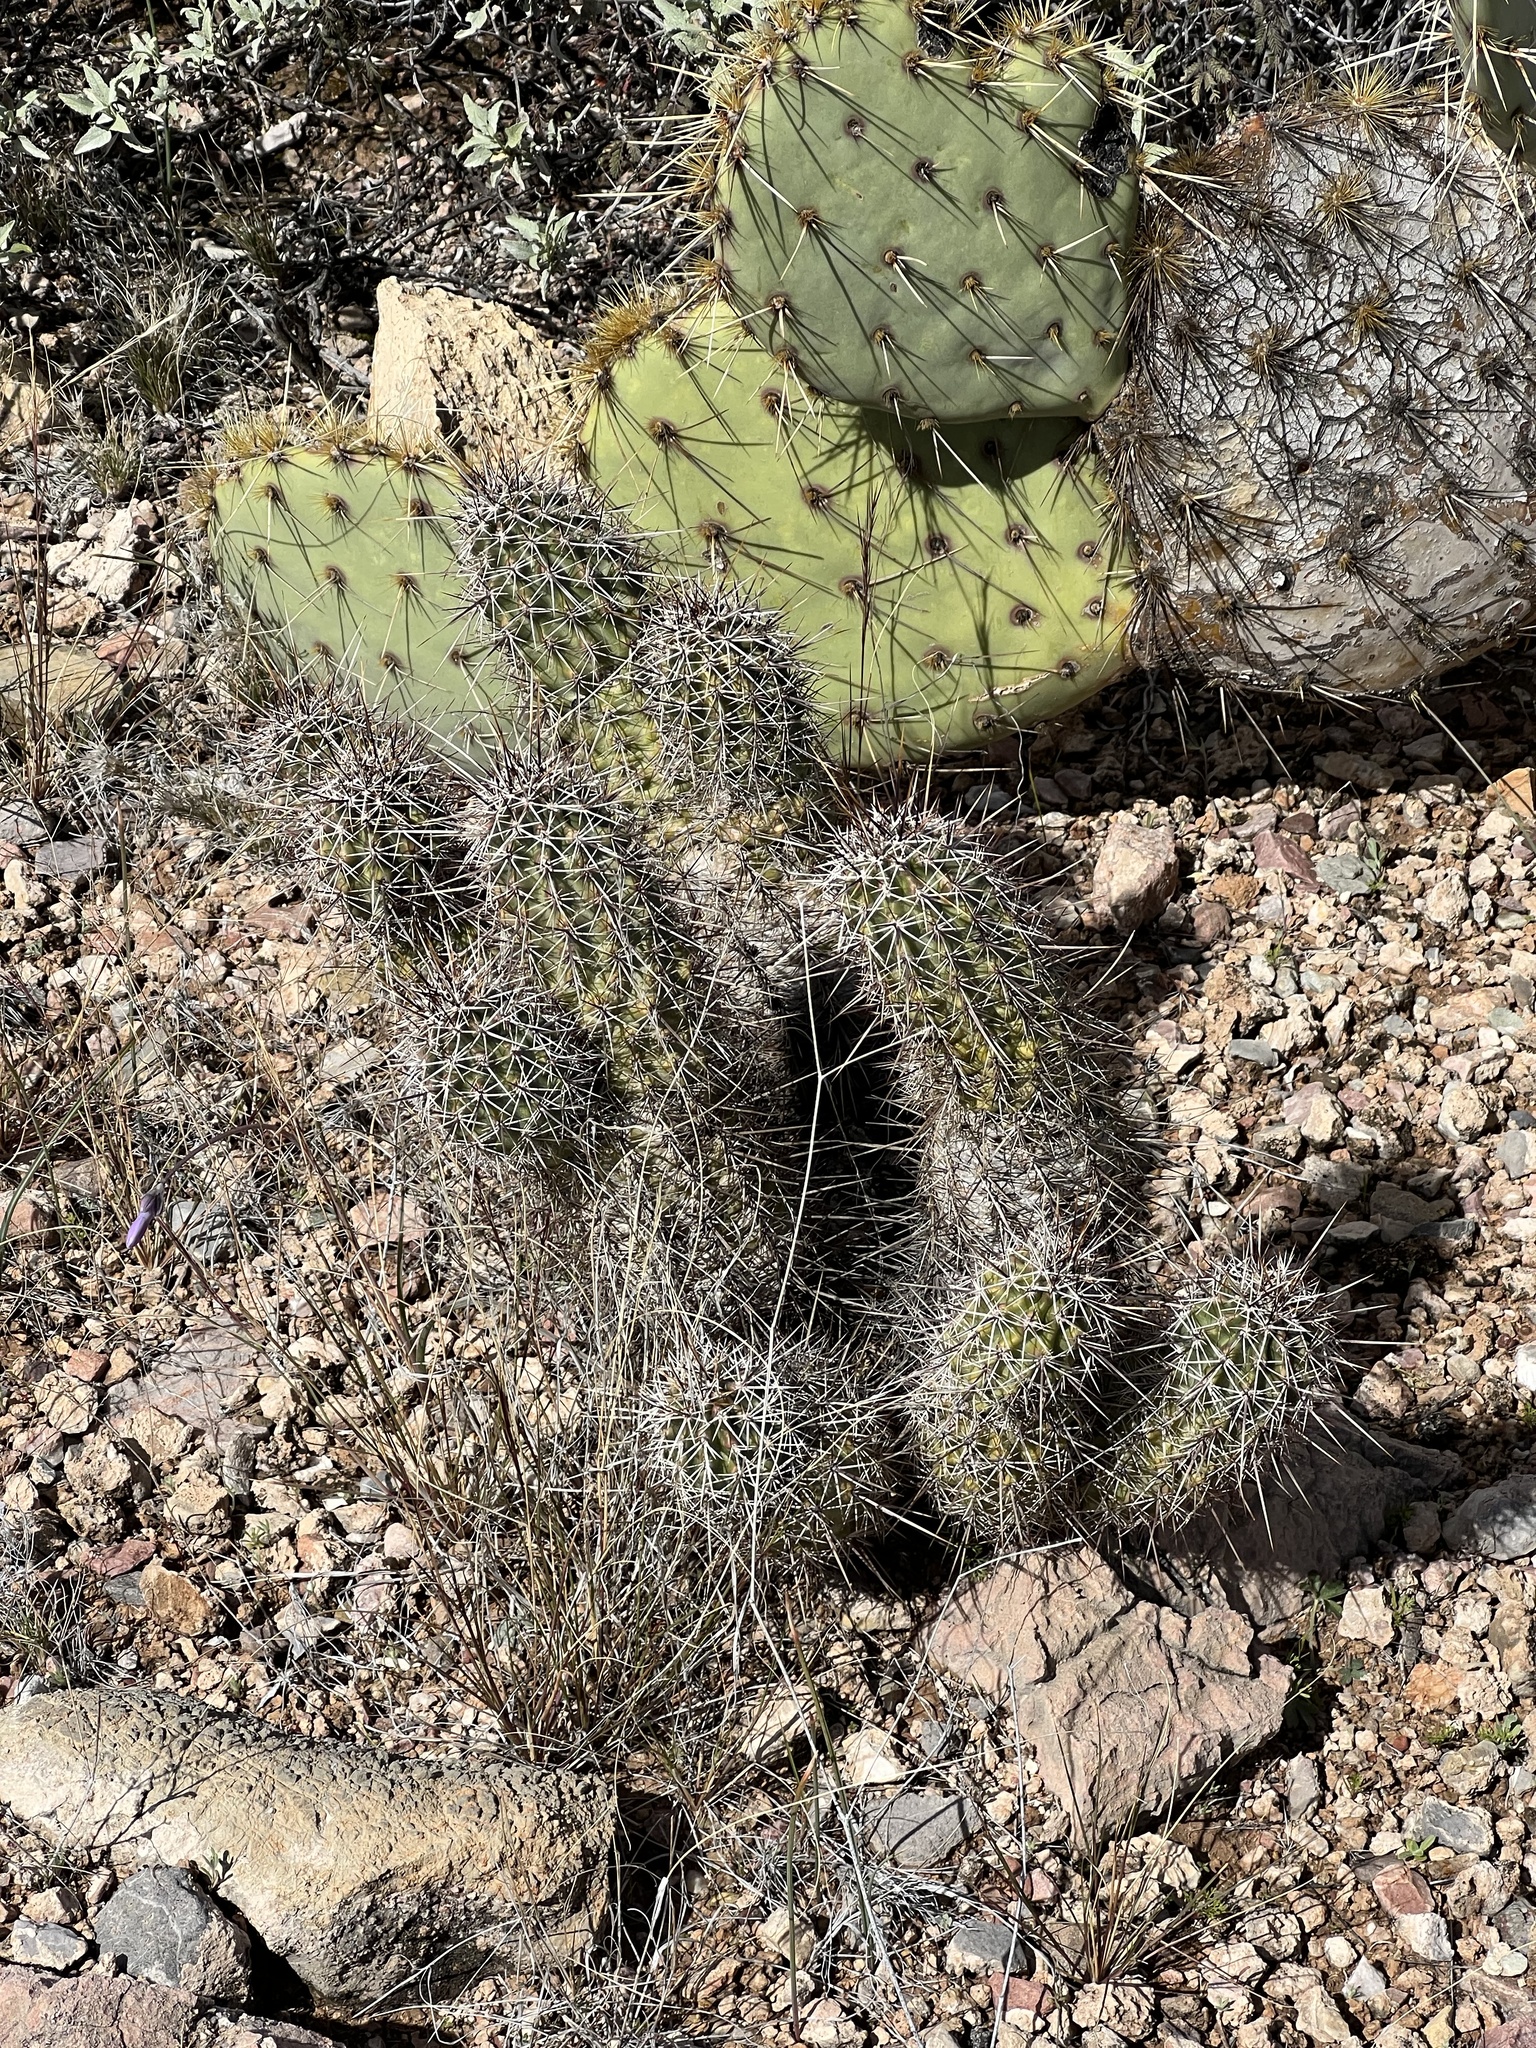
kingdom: Plantae
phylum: Tracheophyta
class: Magnoliopsida
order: Caryophyllales
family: Cactaceae
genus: Echinocereus
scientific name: Echinocereus fasciculatus
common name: Bundle hedgehog
